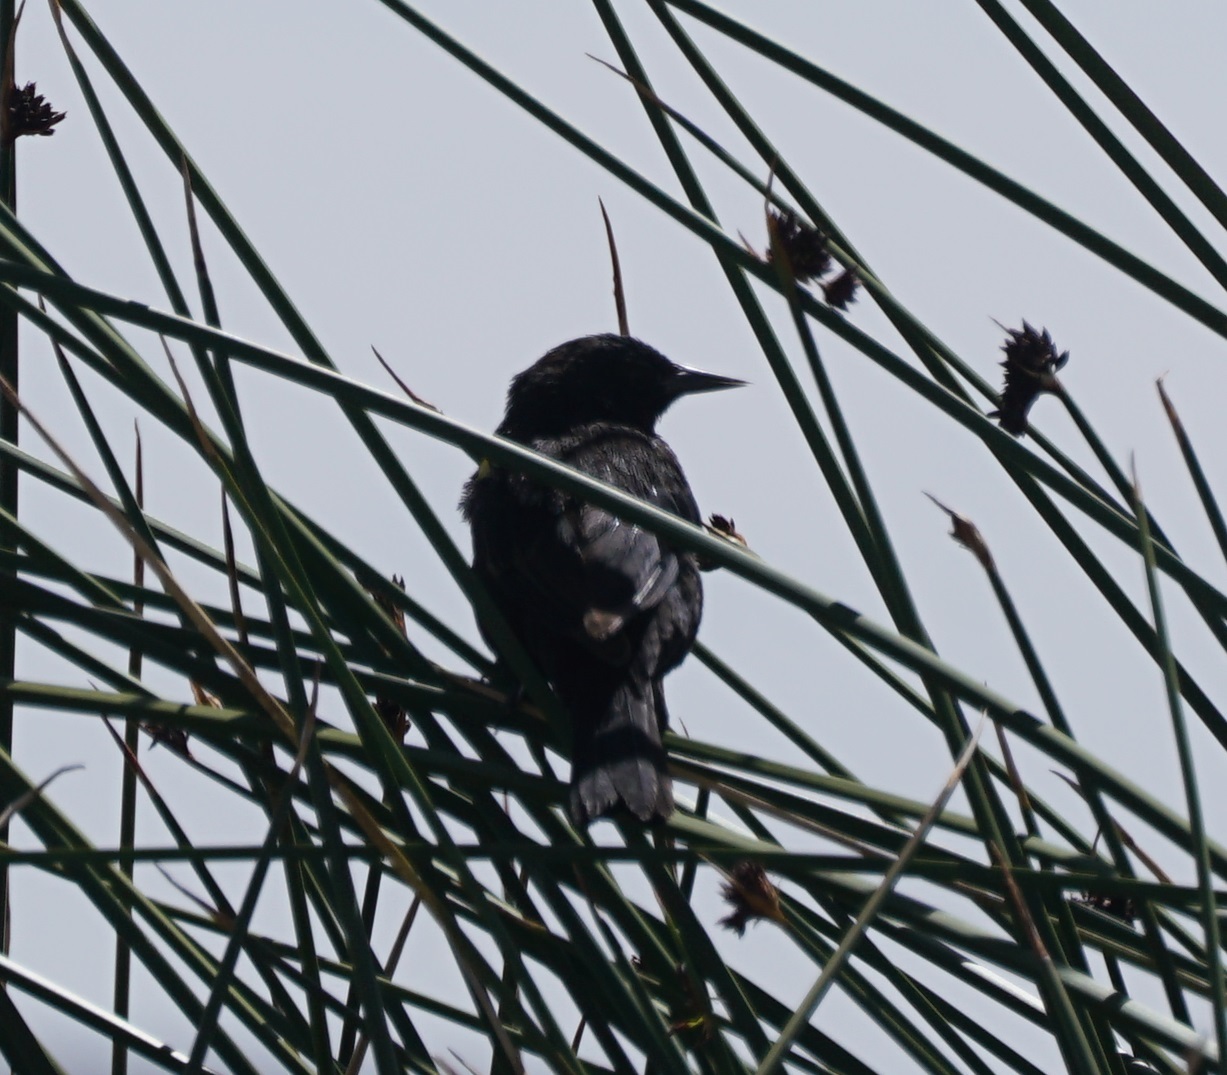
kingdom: Animalia
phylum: Chordata
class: Aves
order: Passeriformes
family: Icteridae
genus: Agelasticus
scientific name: Agelasticus thilius
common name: Yellow-winged blackbird
